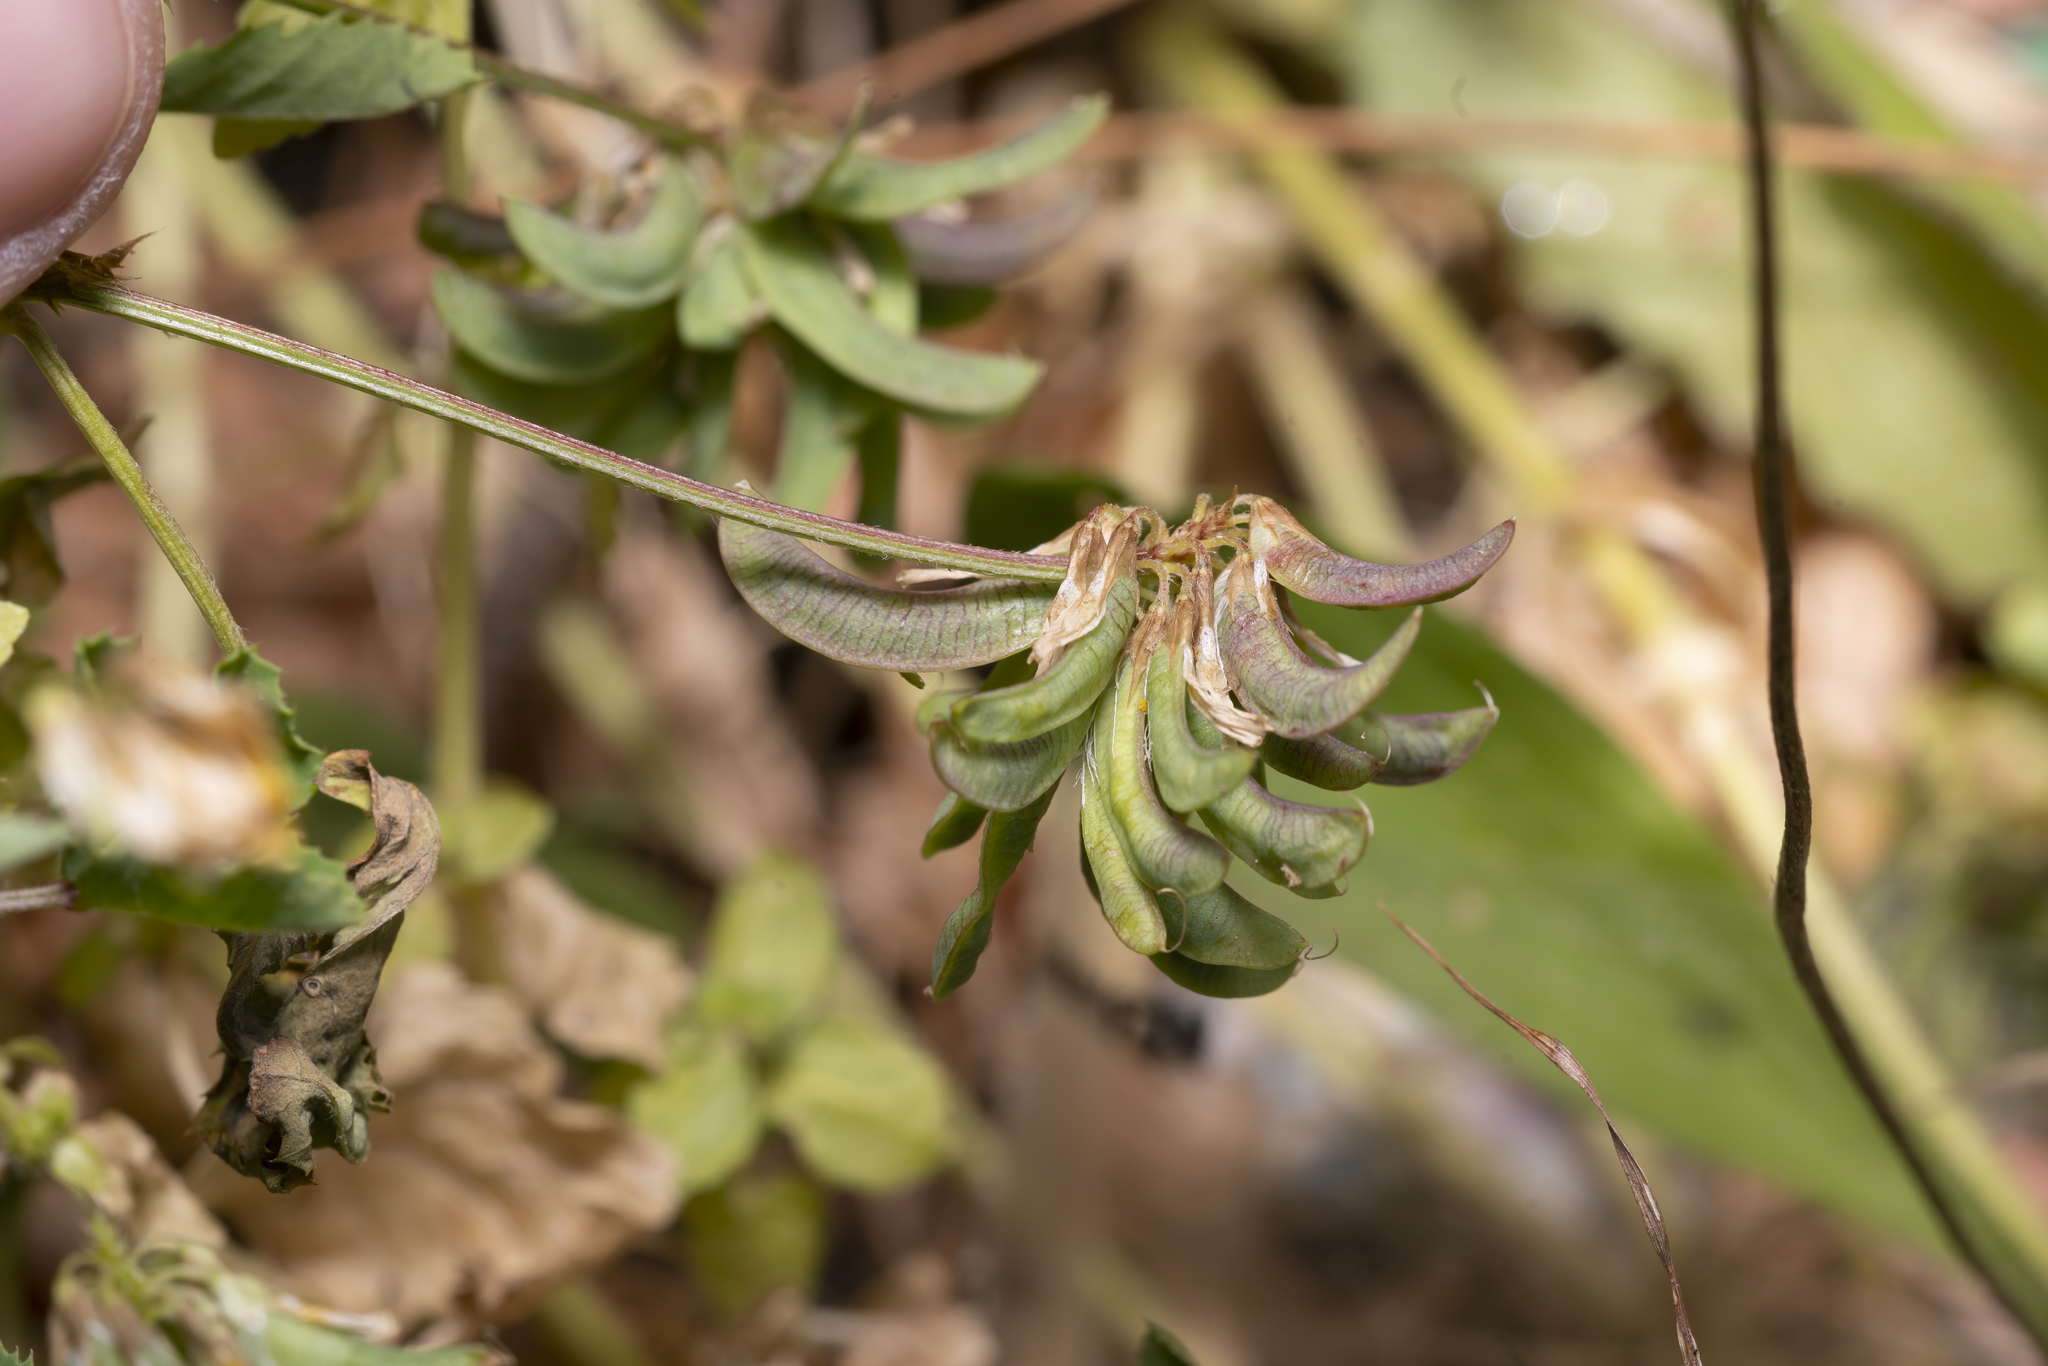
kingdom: Plantae
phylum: Tracheophyta
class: Magnoliopsida
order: Fabales
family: Fabaceae
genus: Trigonella
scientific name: Trigonella balansae
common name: Sickle-fruited fenugreek
